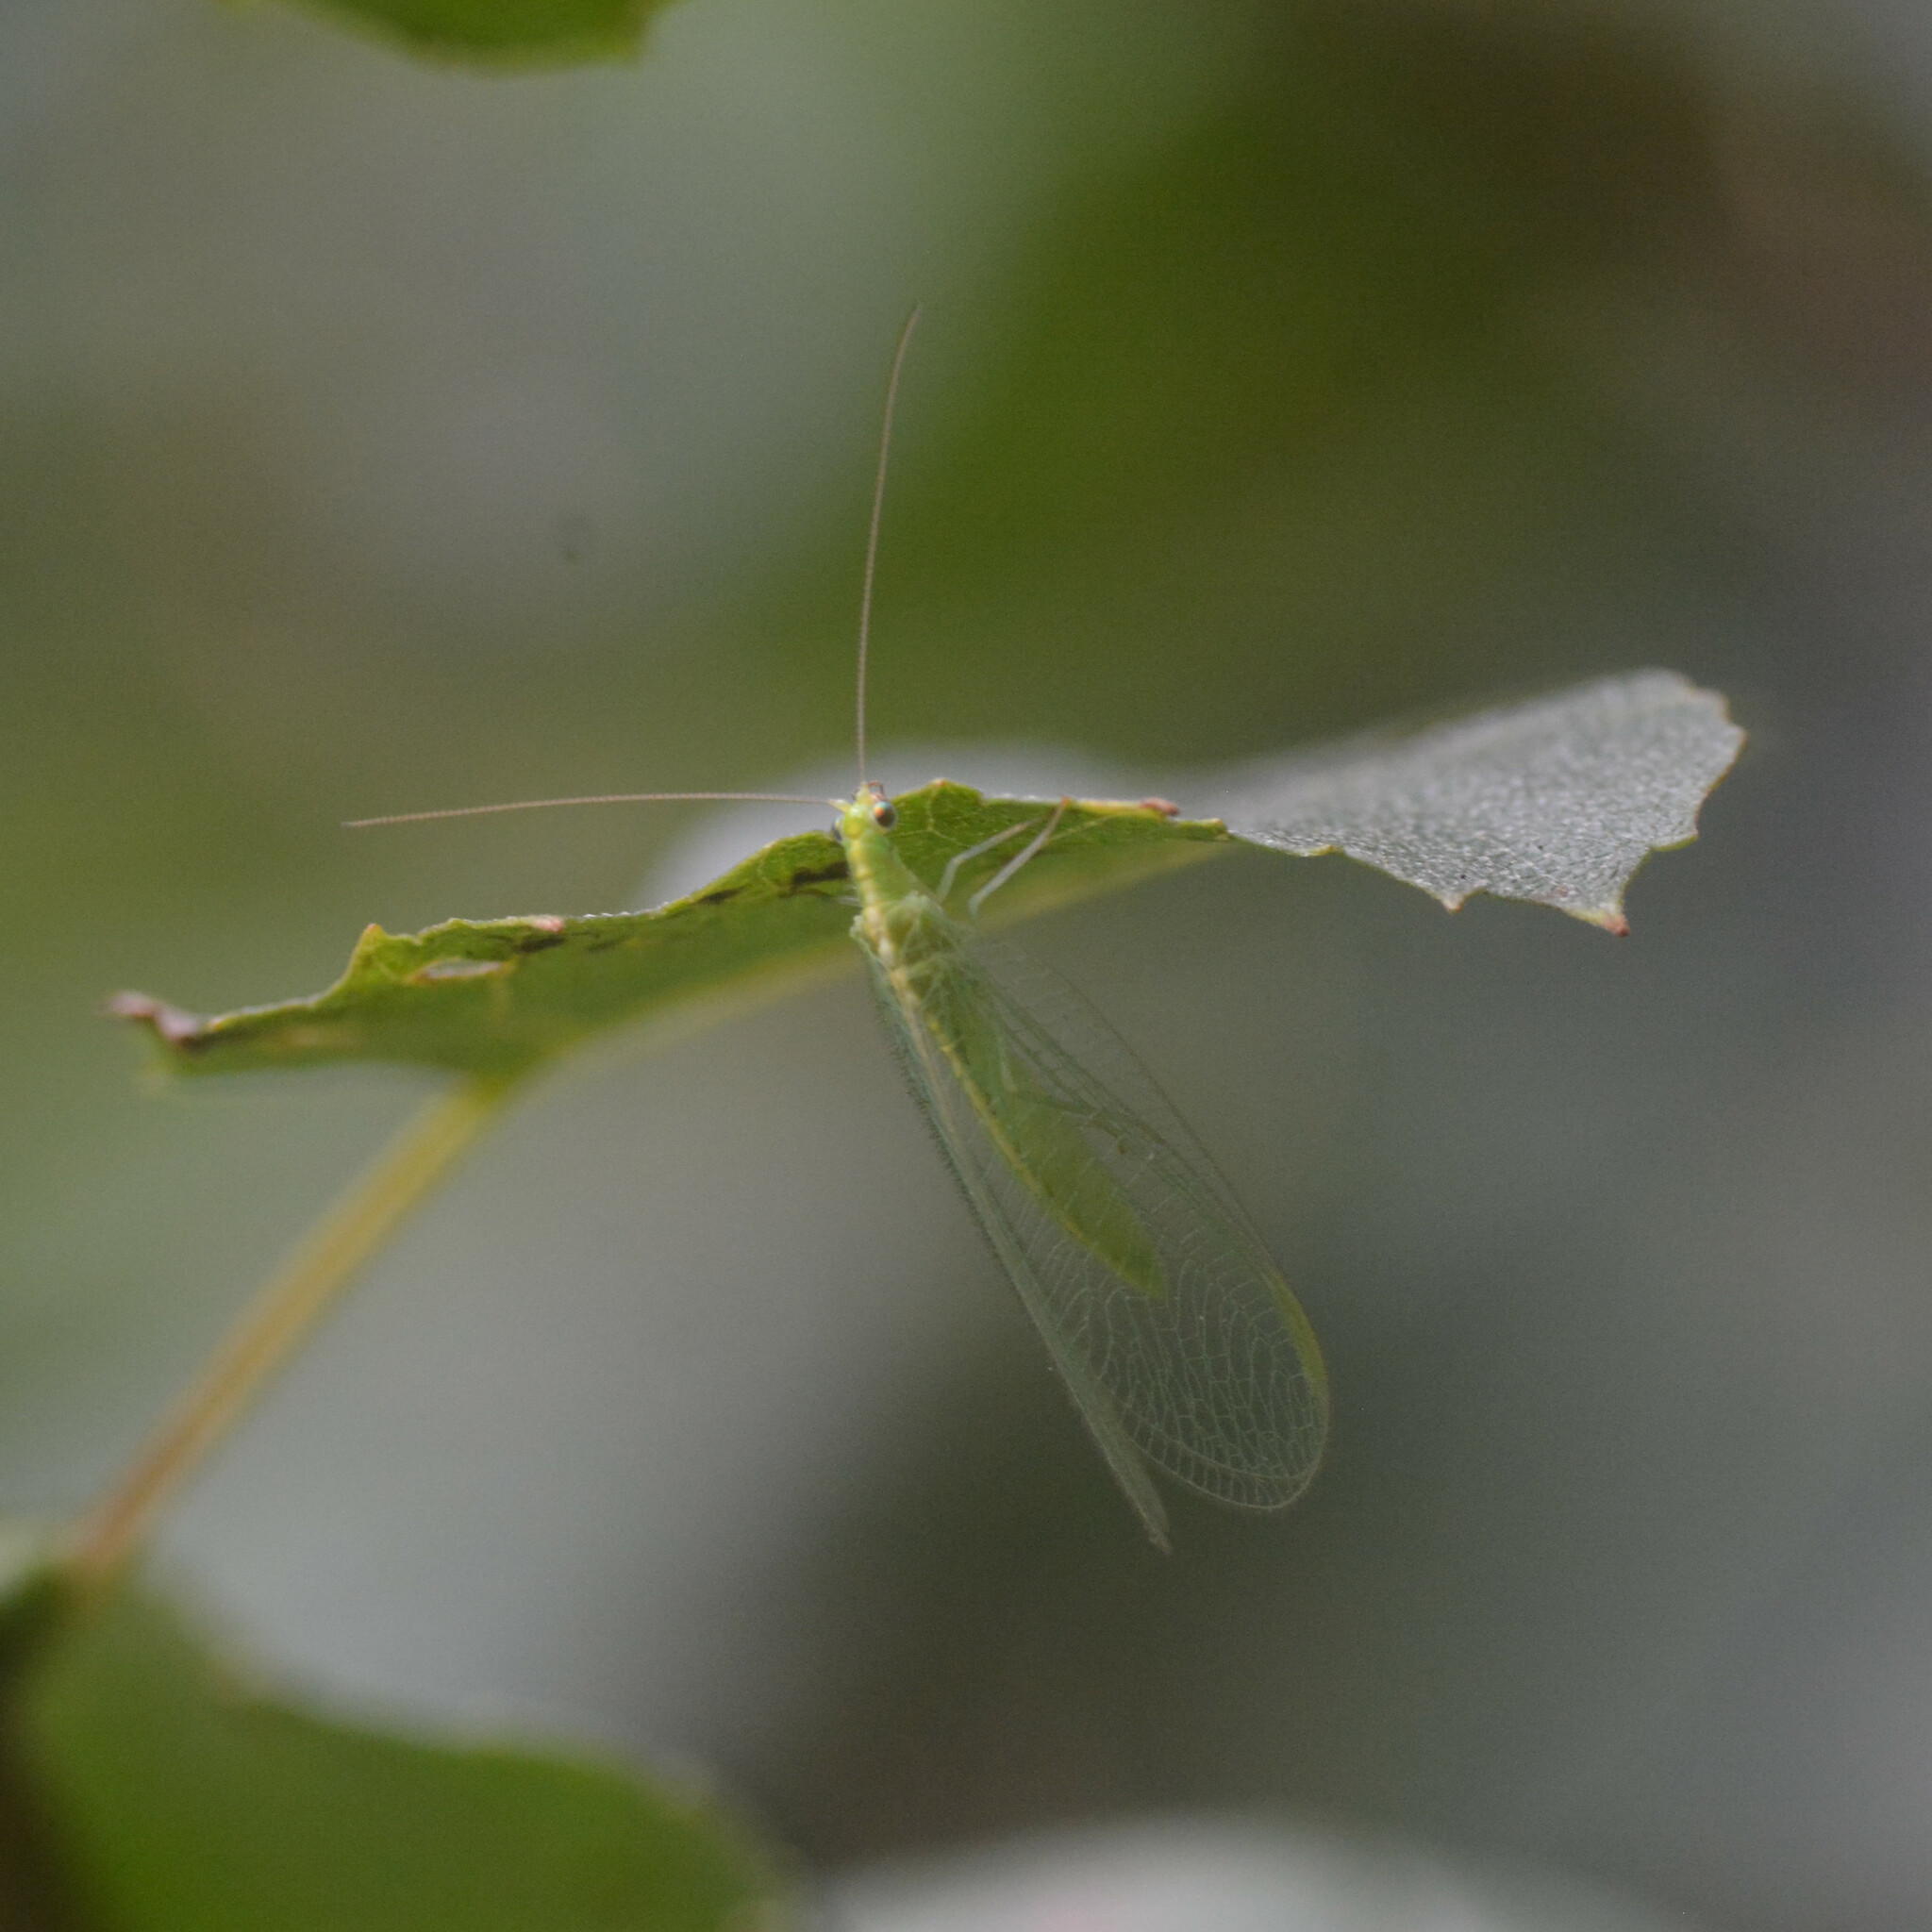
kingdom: Animalia
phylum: Arthropoda
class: Insecta
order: Neuroptera
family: Chrysopidae
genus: Chrysoperla
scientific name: Chrysoperla
